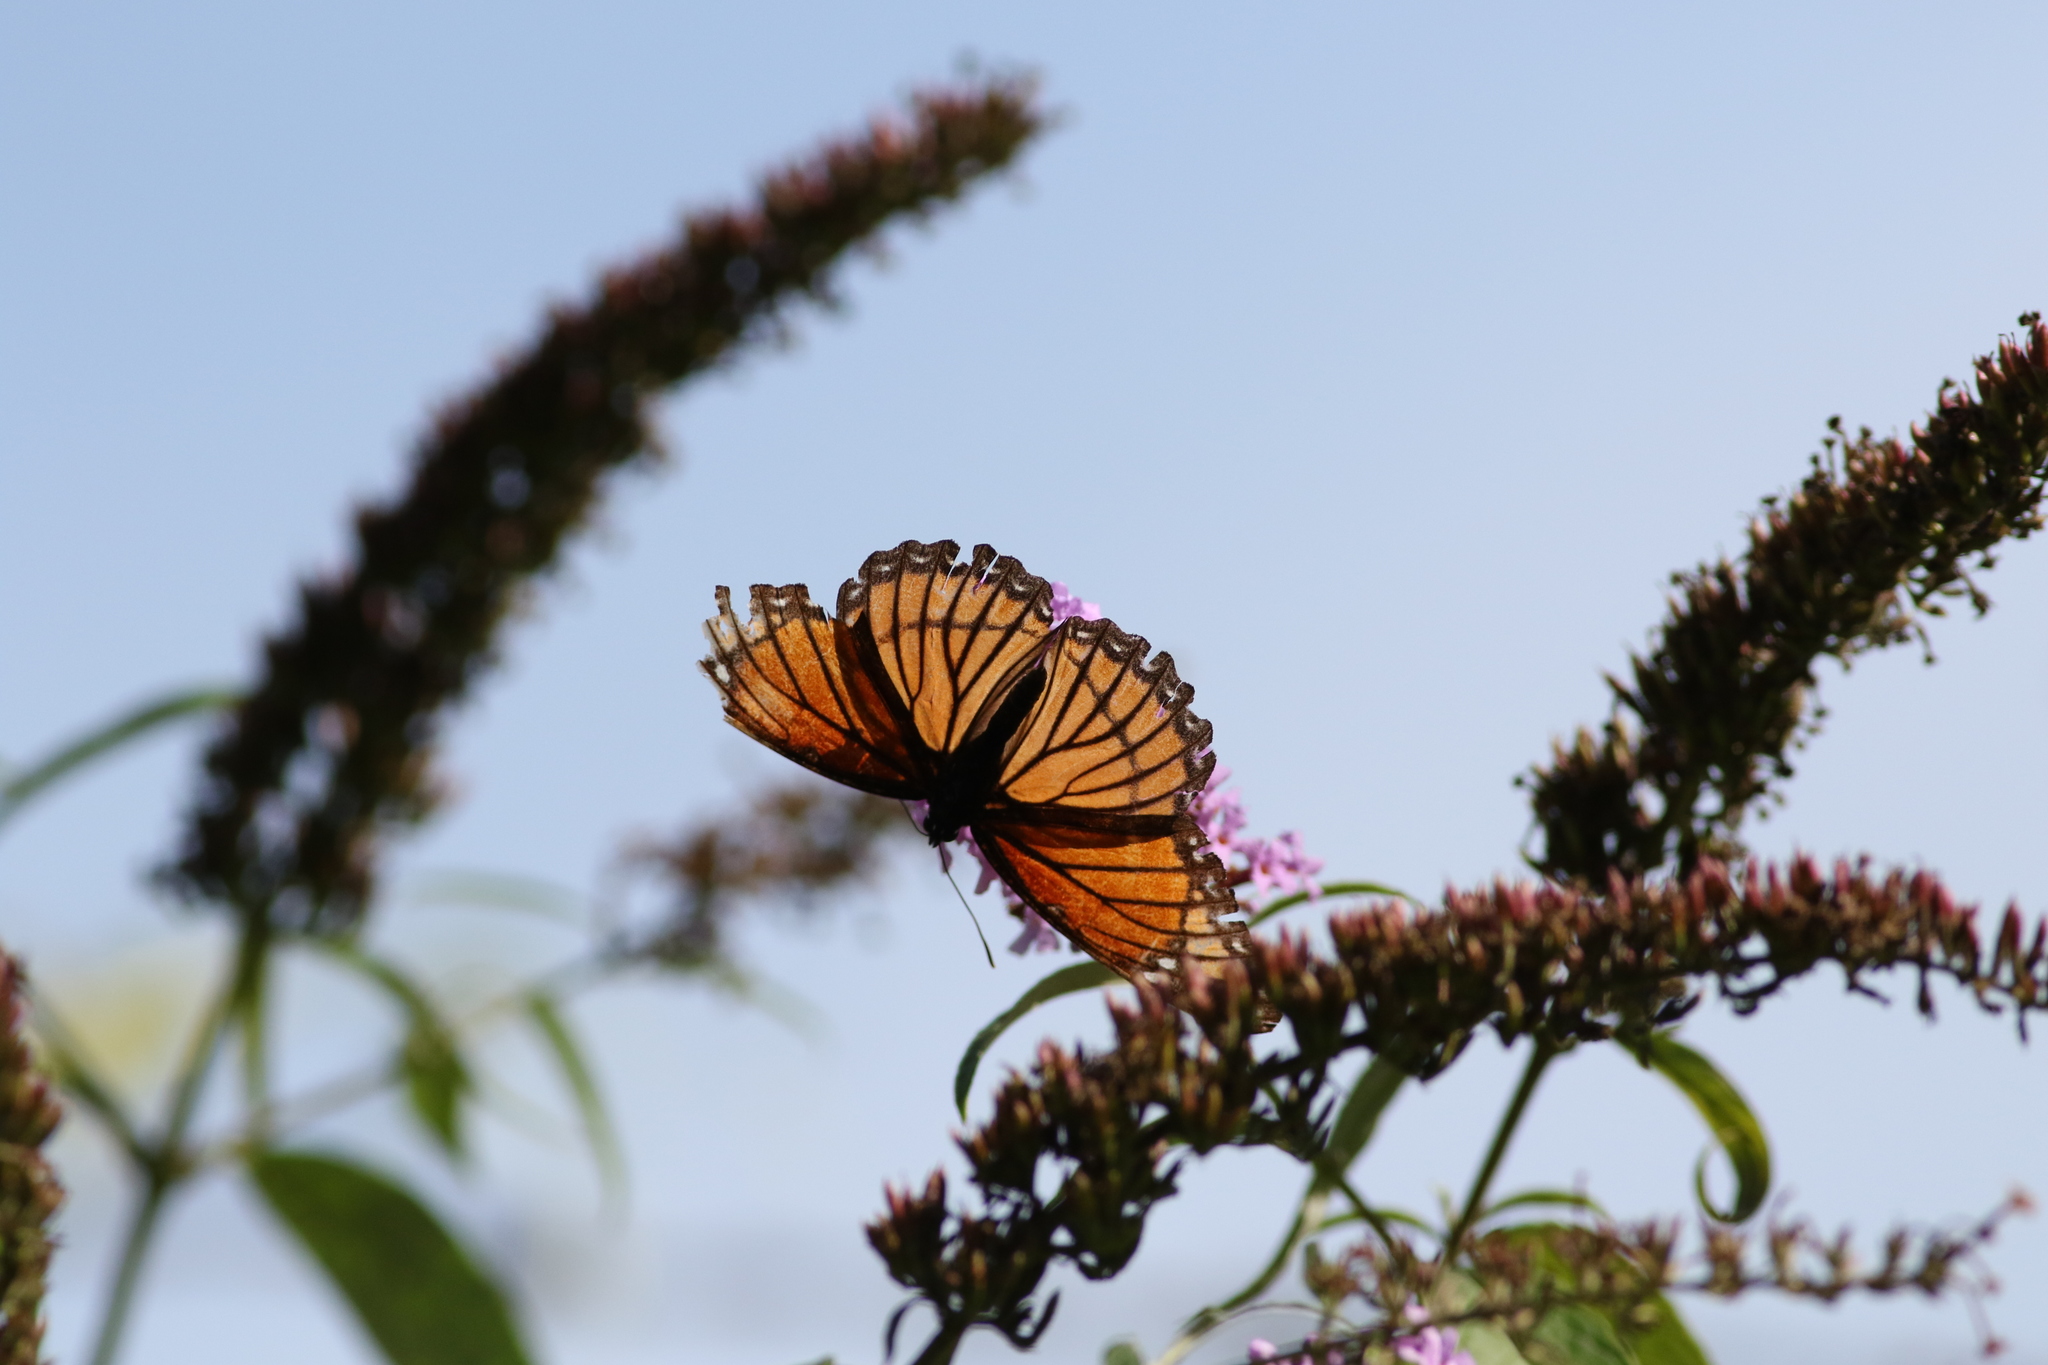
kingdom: Animalia
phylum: Arthropoda
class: Insecta
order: Lepidoptera
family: Nymphalidae
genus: Limenitis
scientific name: Limenitis archippus
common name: Viceroy
